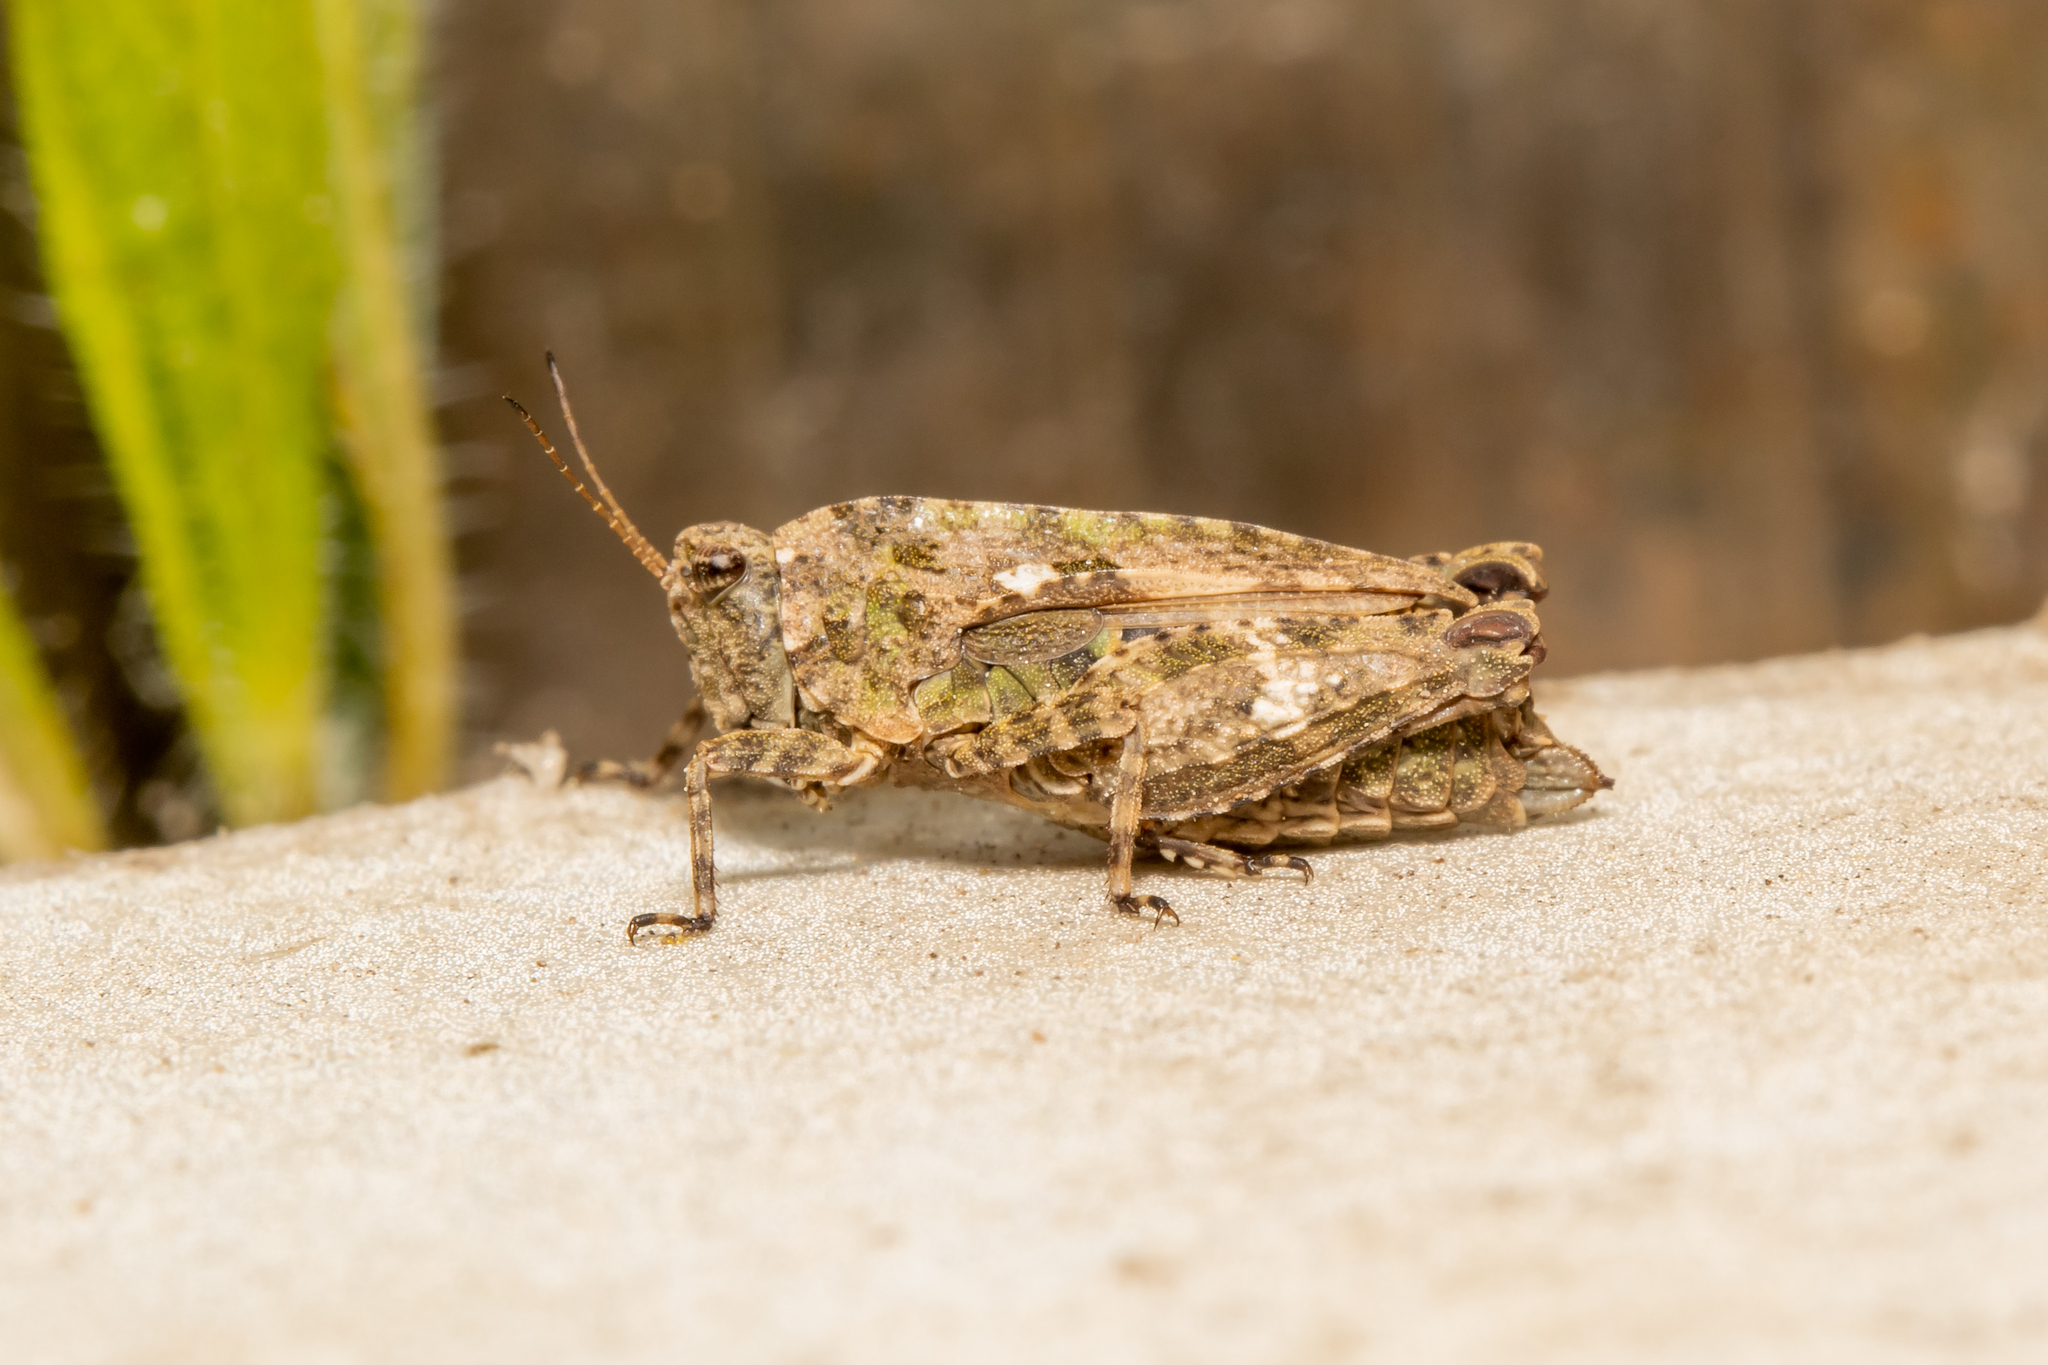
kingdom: Animalia
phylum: Arthropoda
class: Insecta
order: Orthoptera
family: Tetrigidae
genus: Tetrix
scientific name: Tetrix tenuicornis
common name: Long-horned groundhopper
